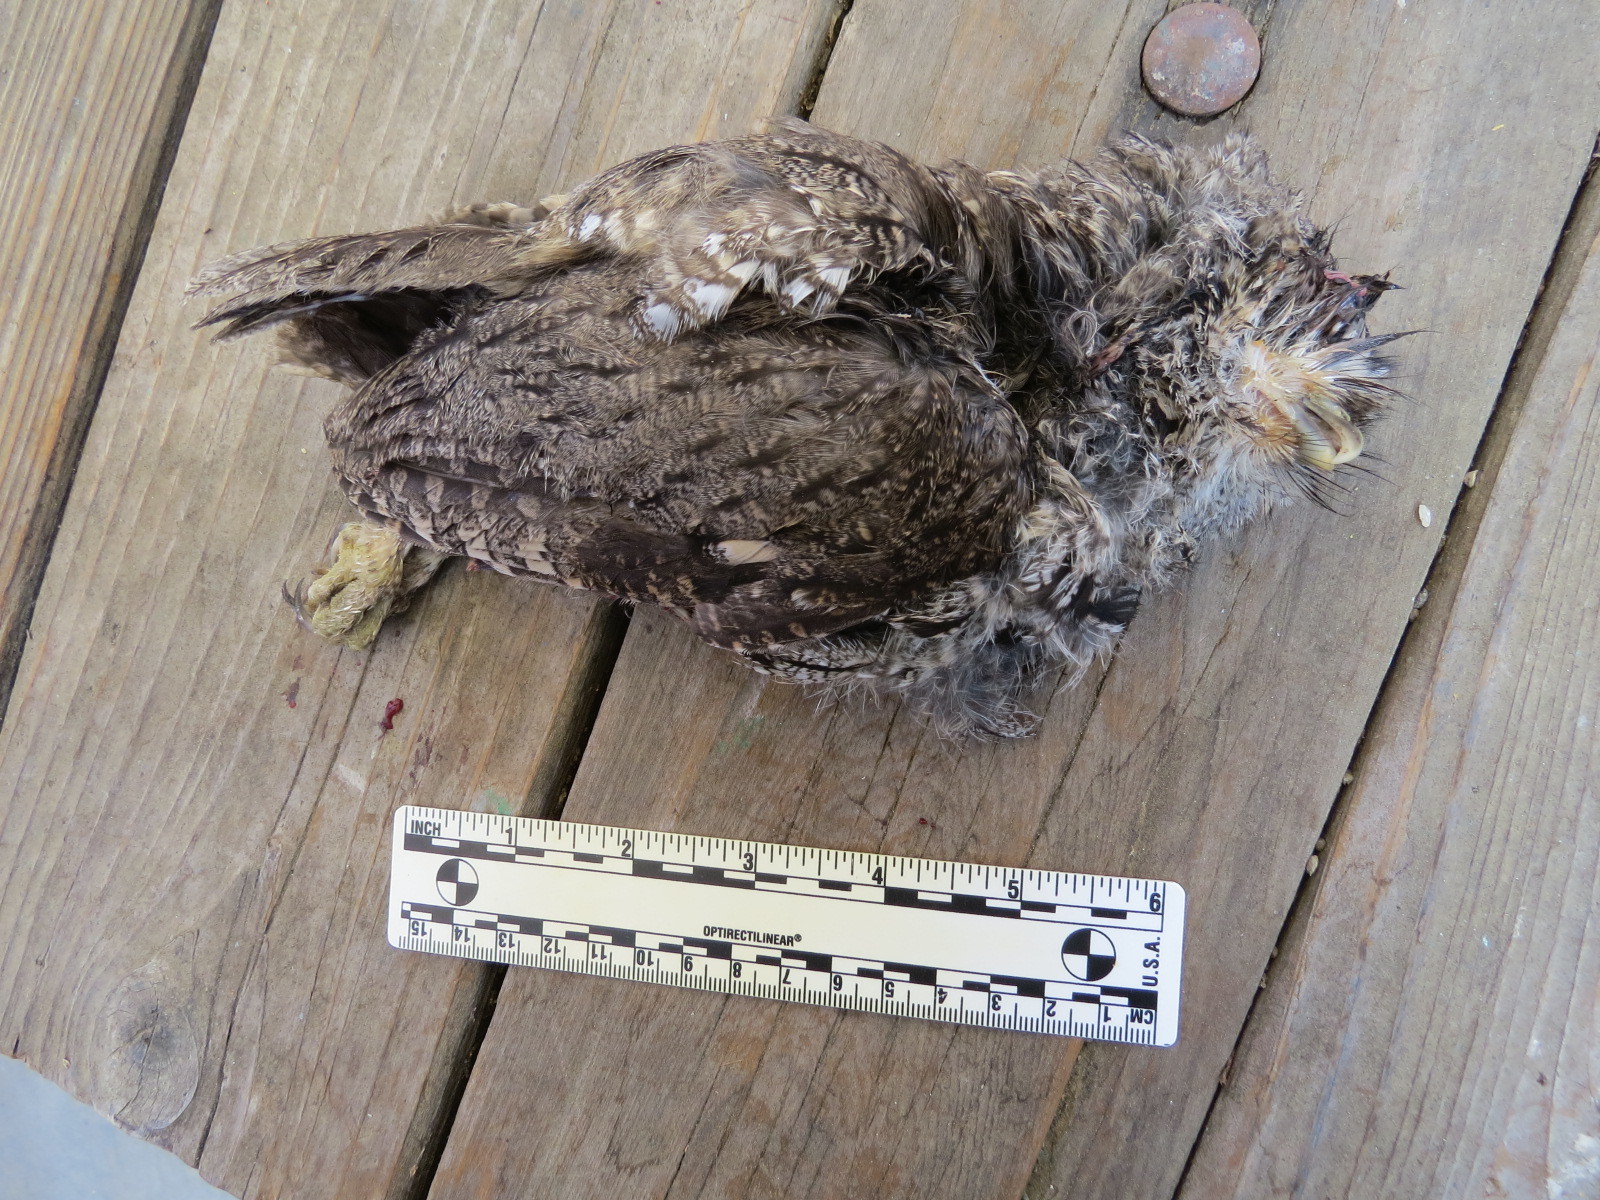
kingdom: Animalia
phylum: Chordata
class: Aves
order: Strigiformes
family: Strigidae
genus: Megascops
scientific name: Megascops kennicottii
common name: Western screech-owl
